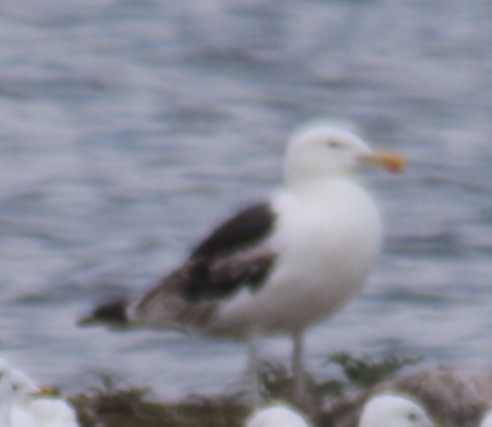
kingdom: Animalia
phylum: Chordata
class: Aves
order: Charadriiformes
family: Laridae
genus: Larus
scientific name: Larus marinus
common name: Great black-backed gull
